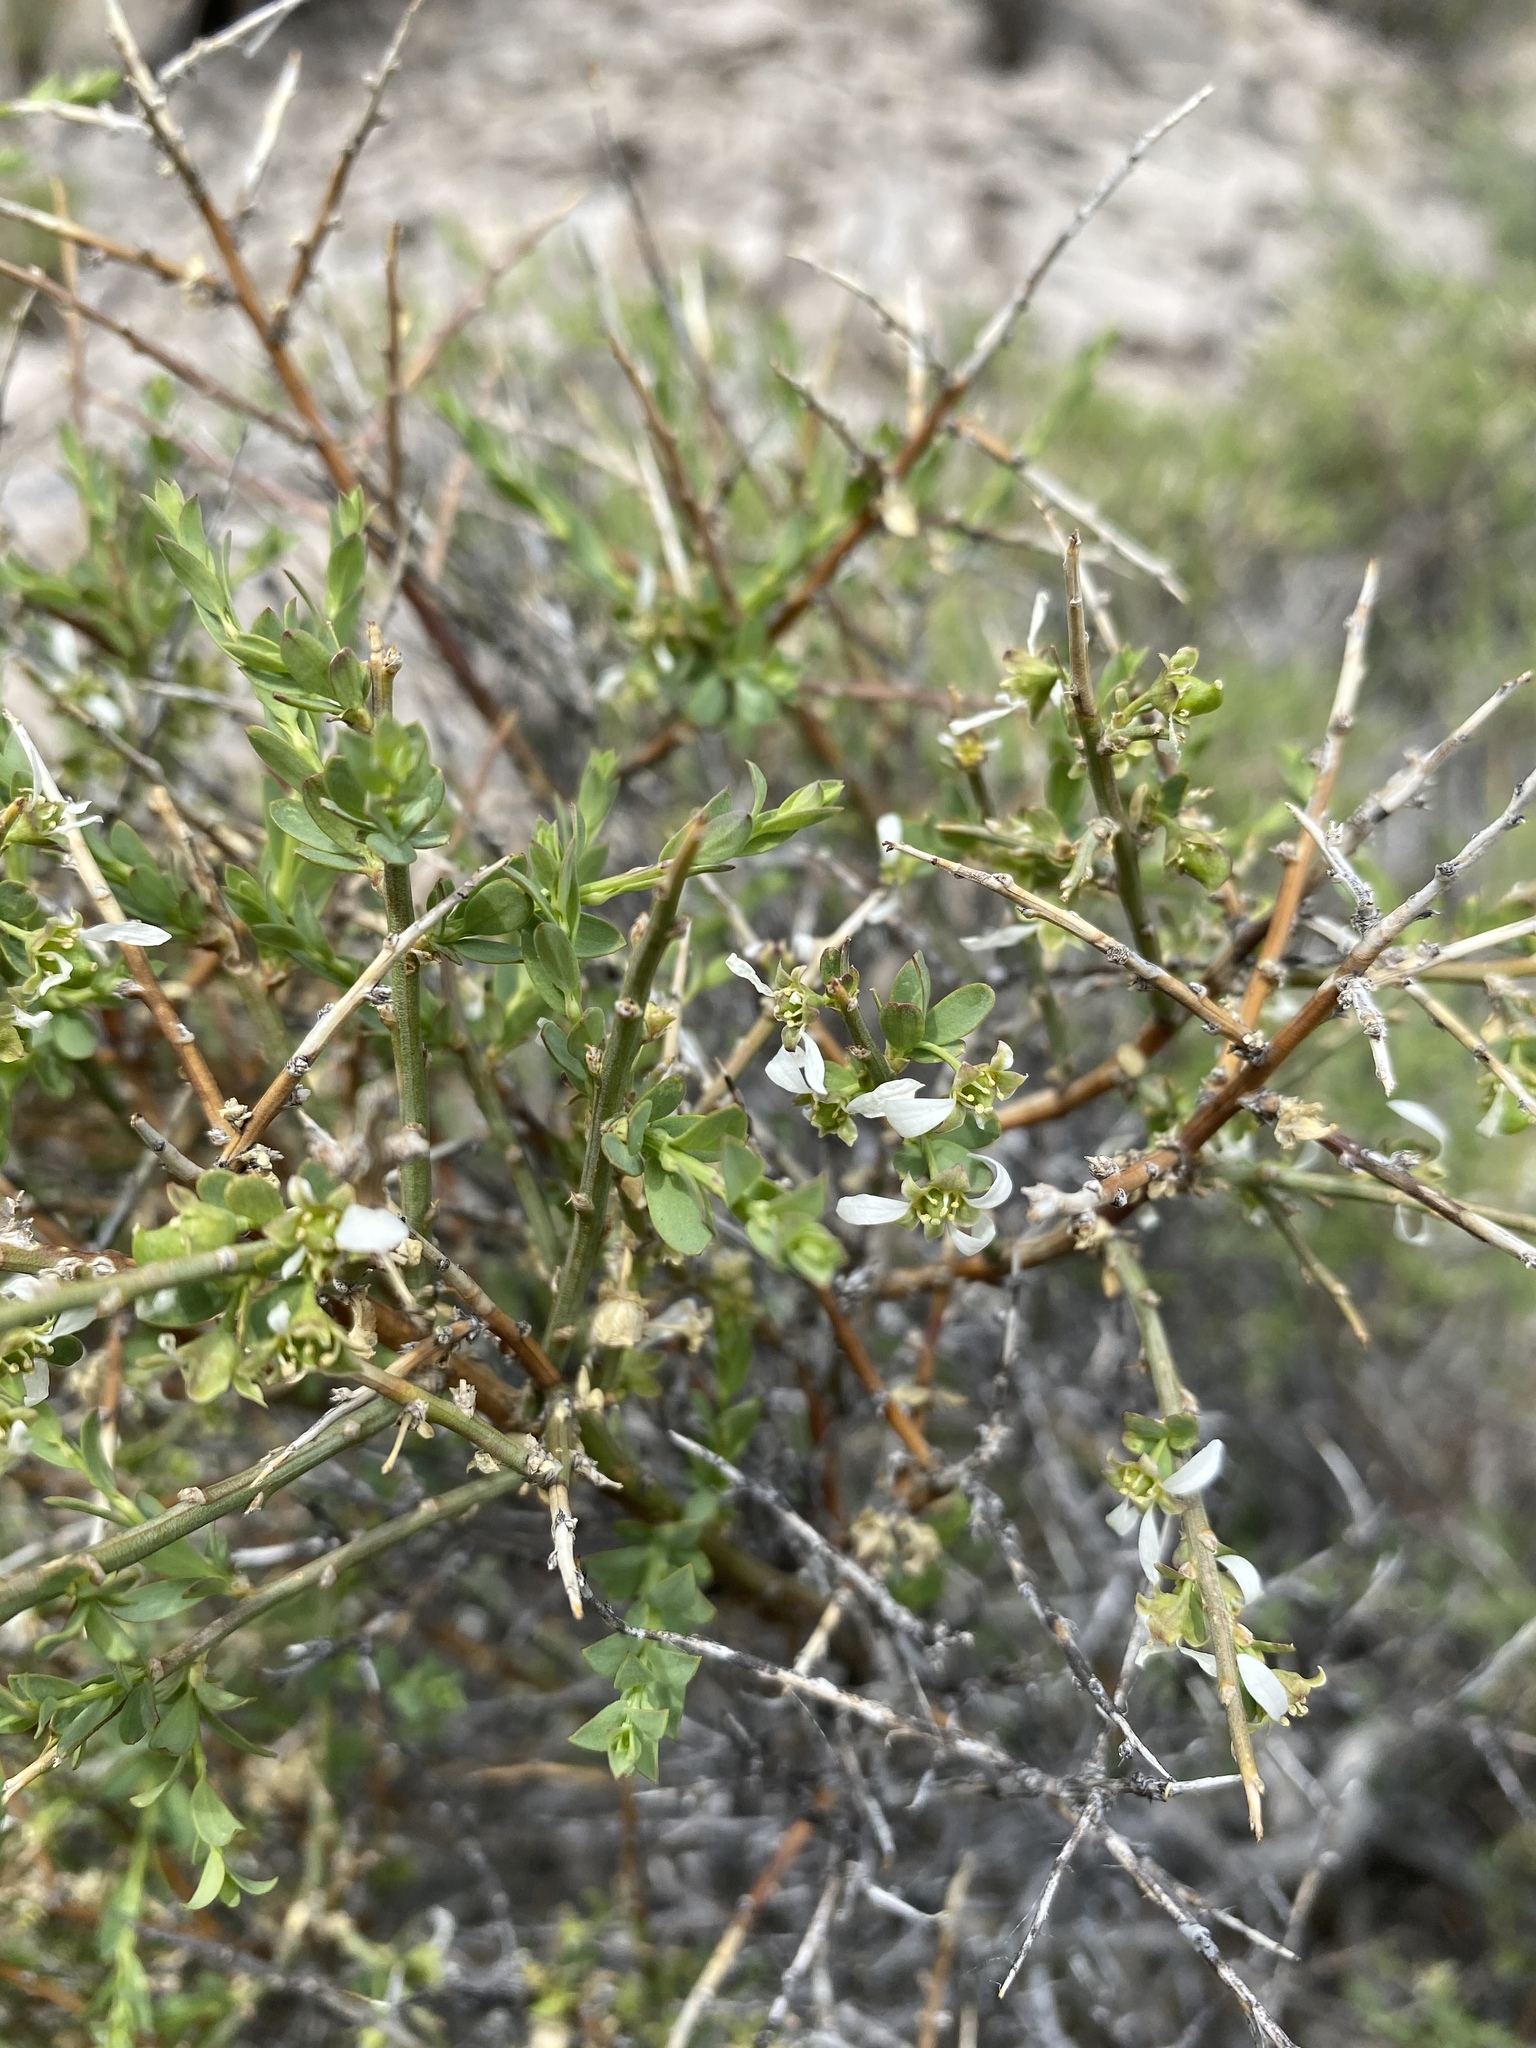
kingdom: Plantae
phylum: Tracheophyta
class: Magnoliopsida
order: Crossosomatales
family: Crossosomataceae
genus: Glossopetalon
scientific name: Glossopetalon spinescens
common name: Spring greasebush
